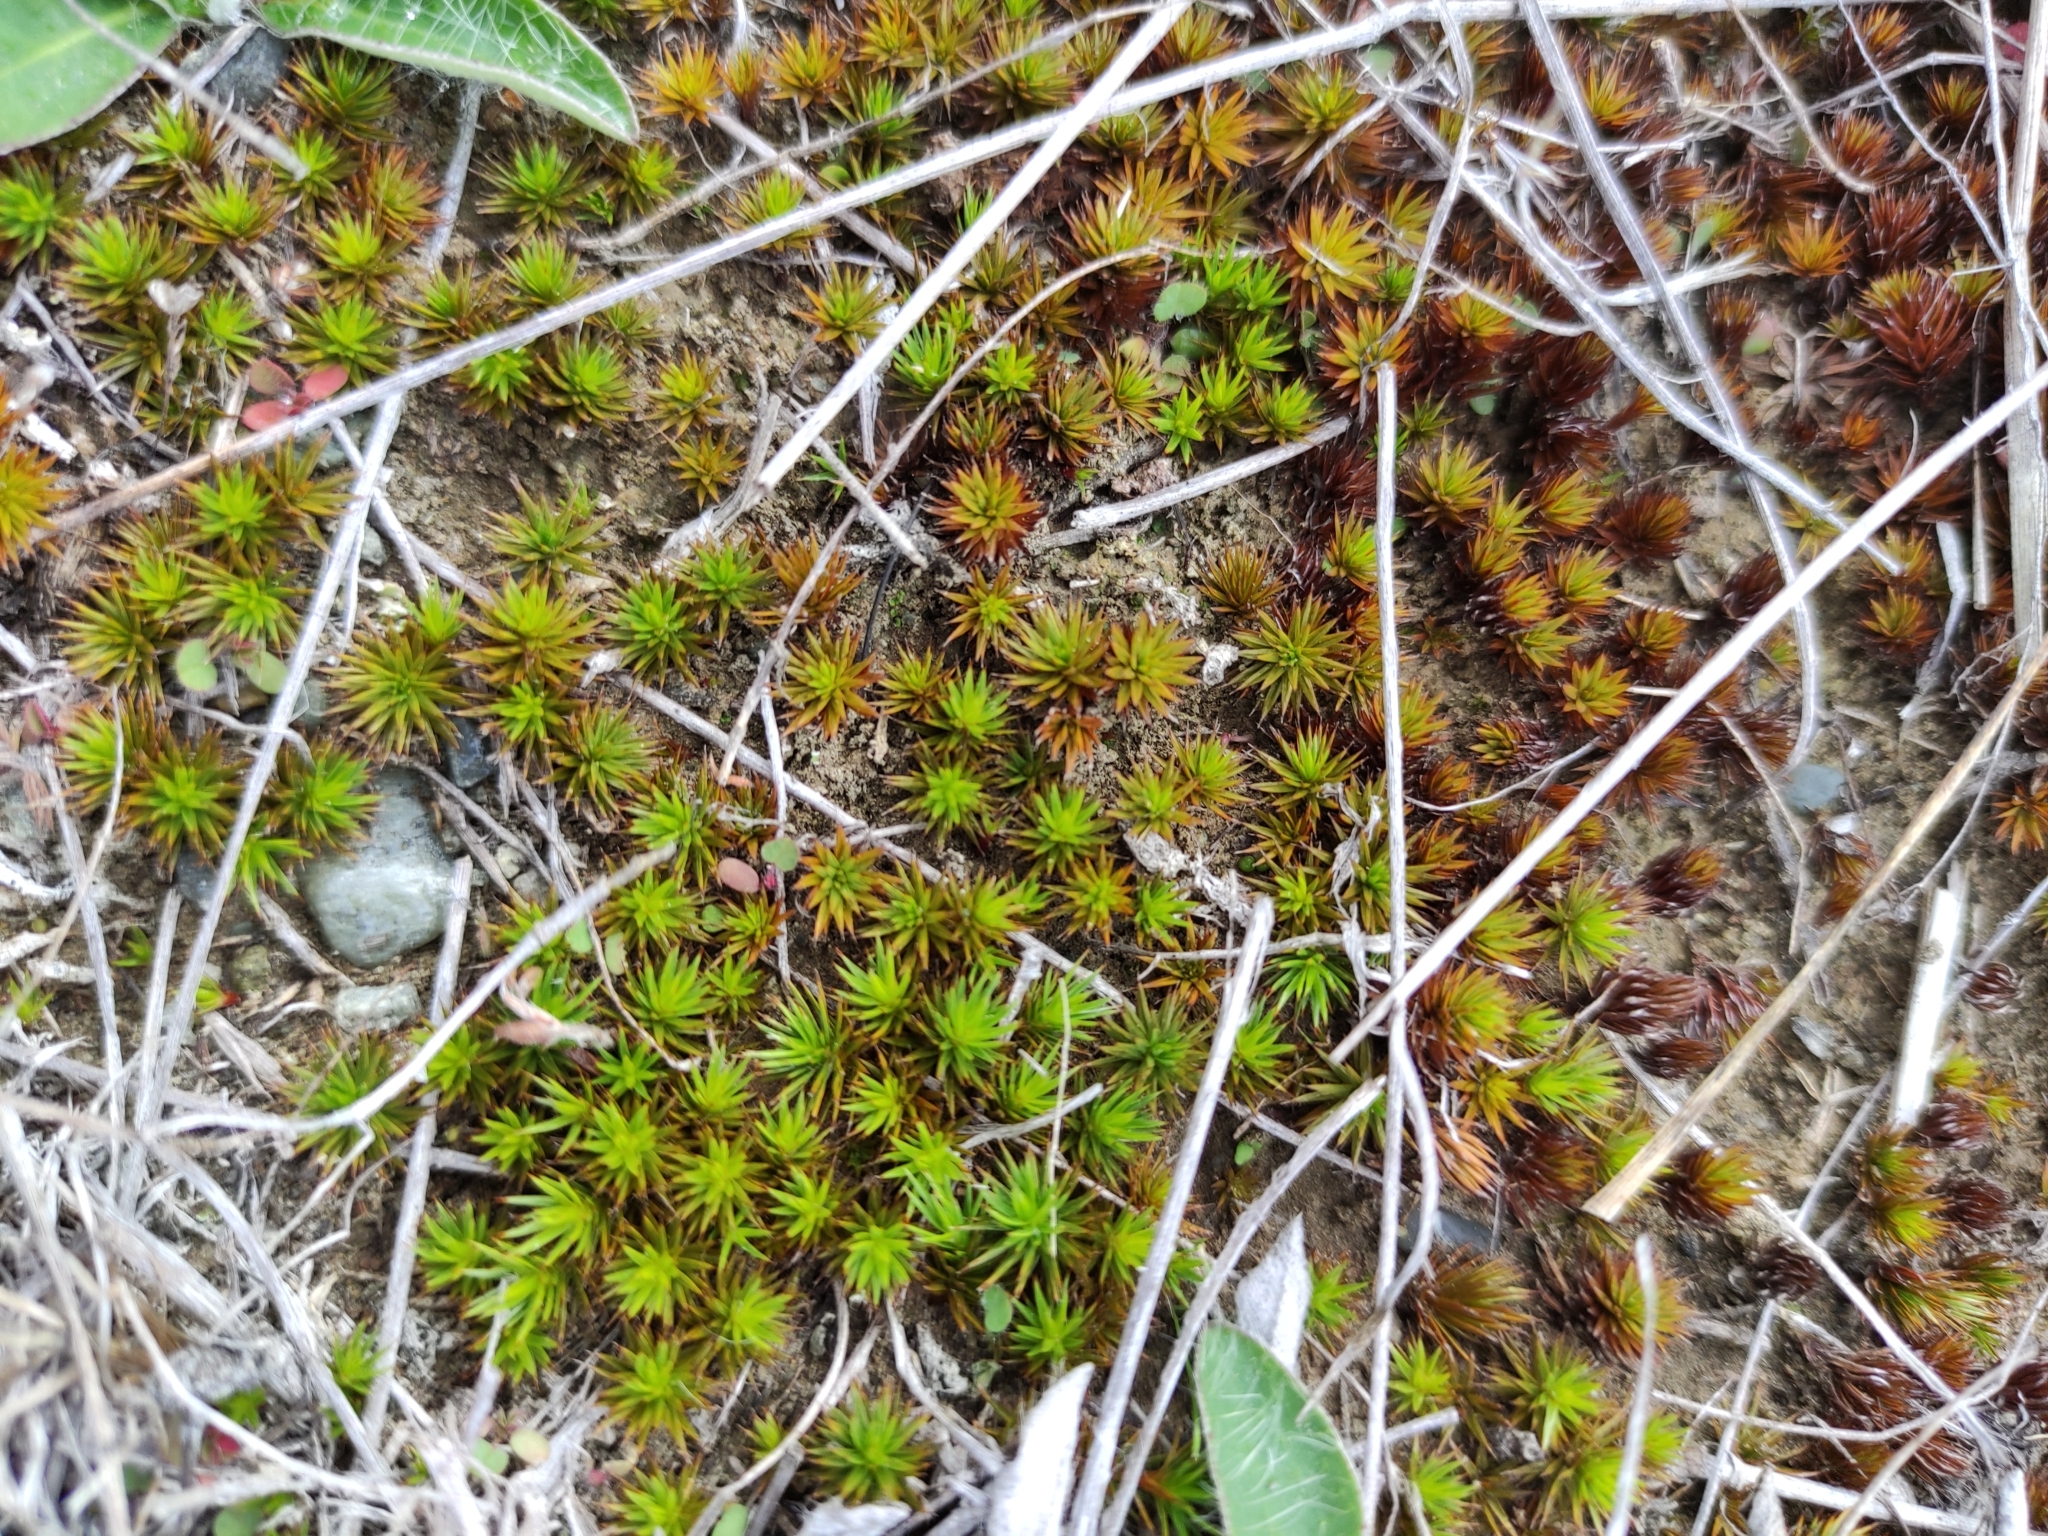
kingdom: Plantae
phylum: Bryophyta
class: Polytrichopsida
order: Polytrichales
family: Polytrichaceae
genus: Polytrichum
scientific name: Polytrichum juniperinum
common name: Juniper haircap moss
